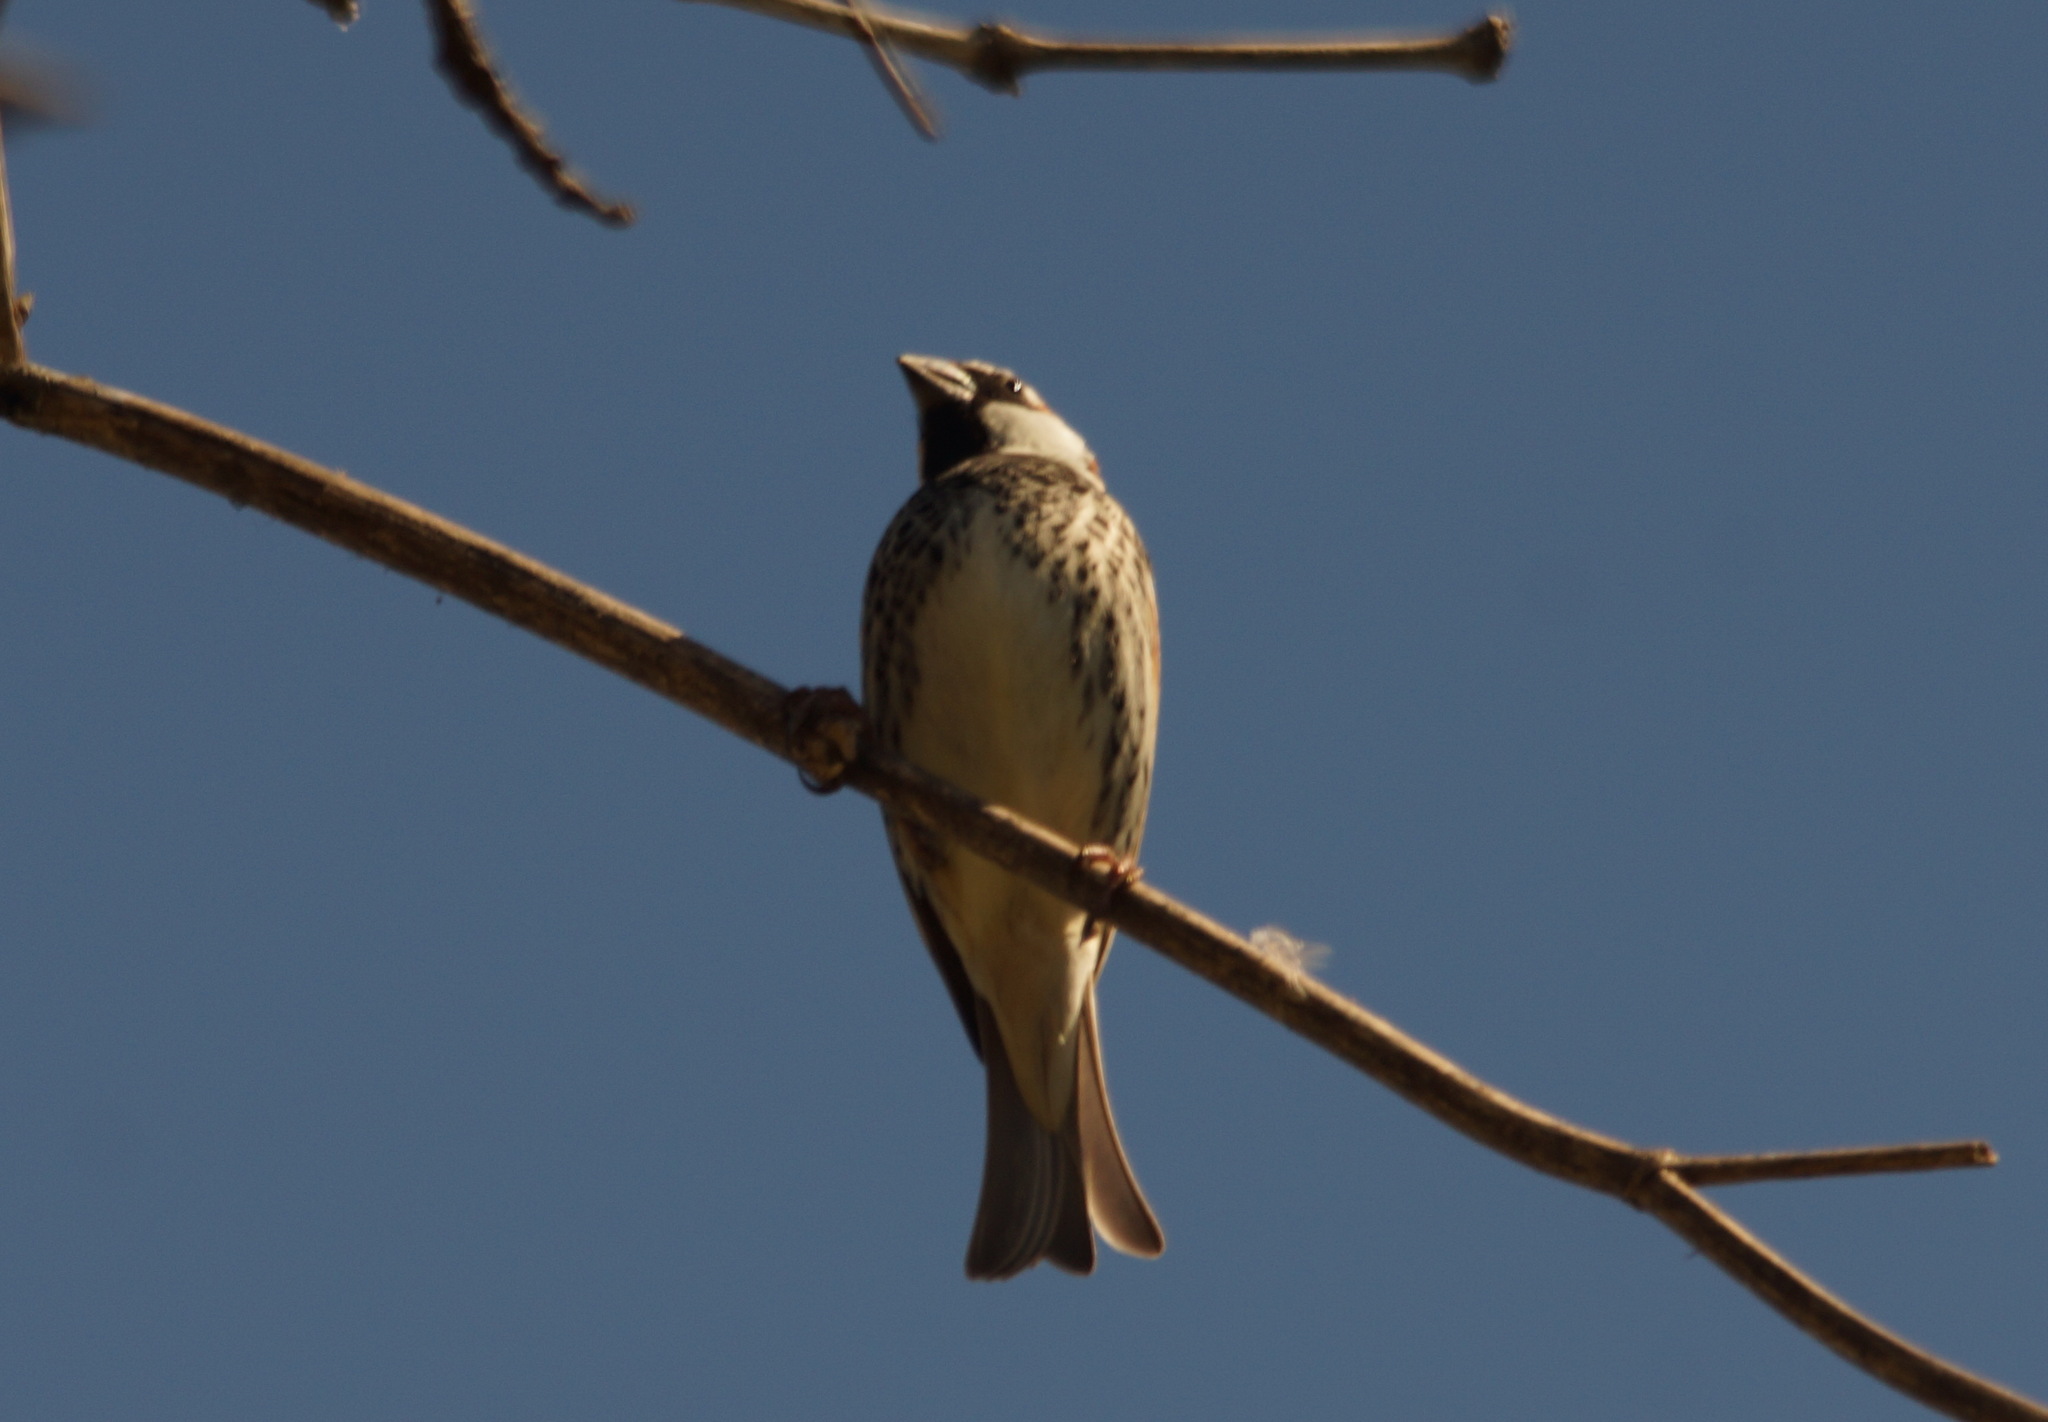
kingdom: Animalia
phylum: Chordata
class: Aves
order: Passeriformes
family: Passeridae
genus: Passer
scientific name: Passer hispaniolensis
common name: Spanish sparrow
